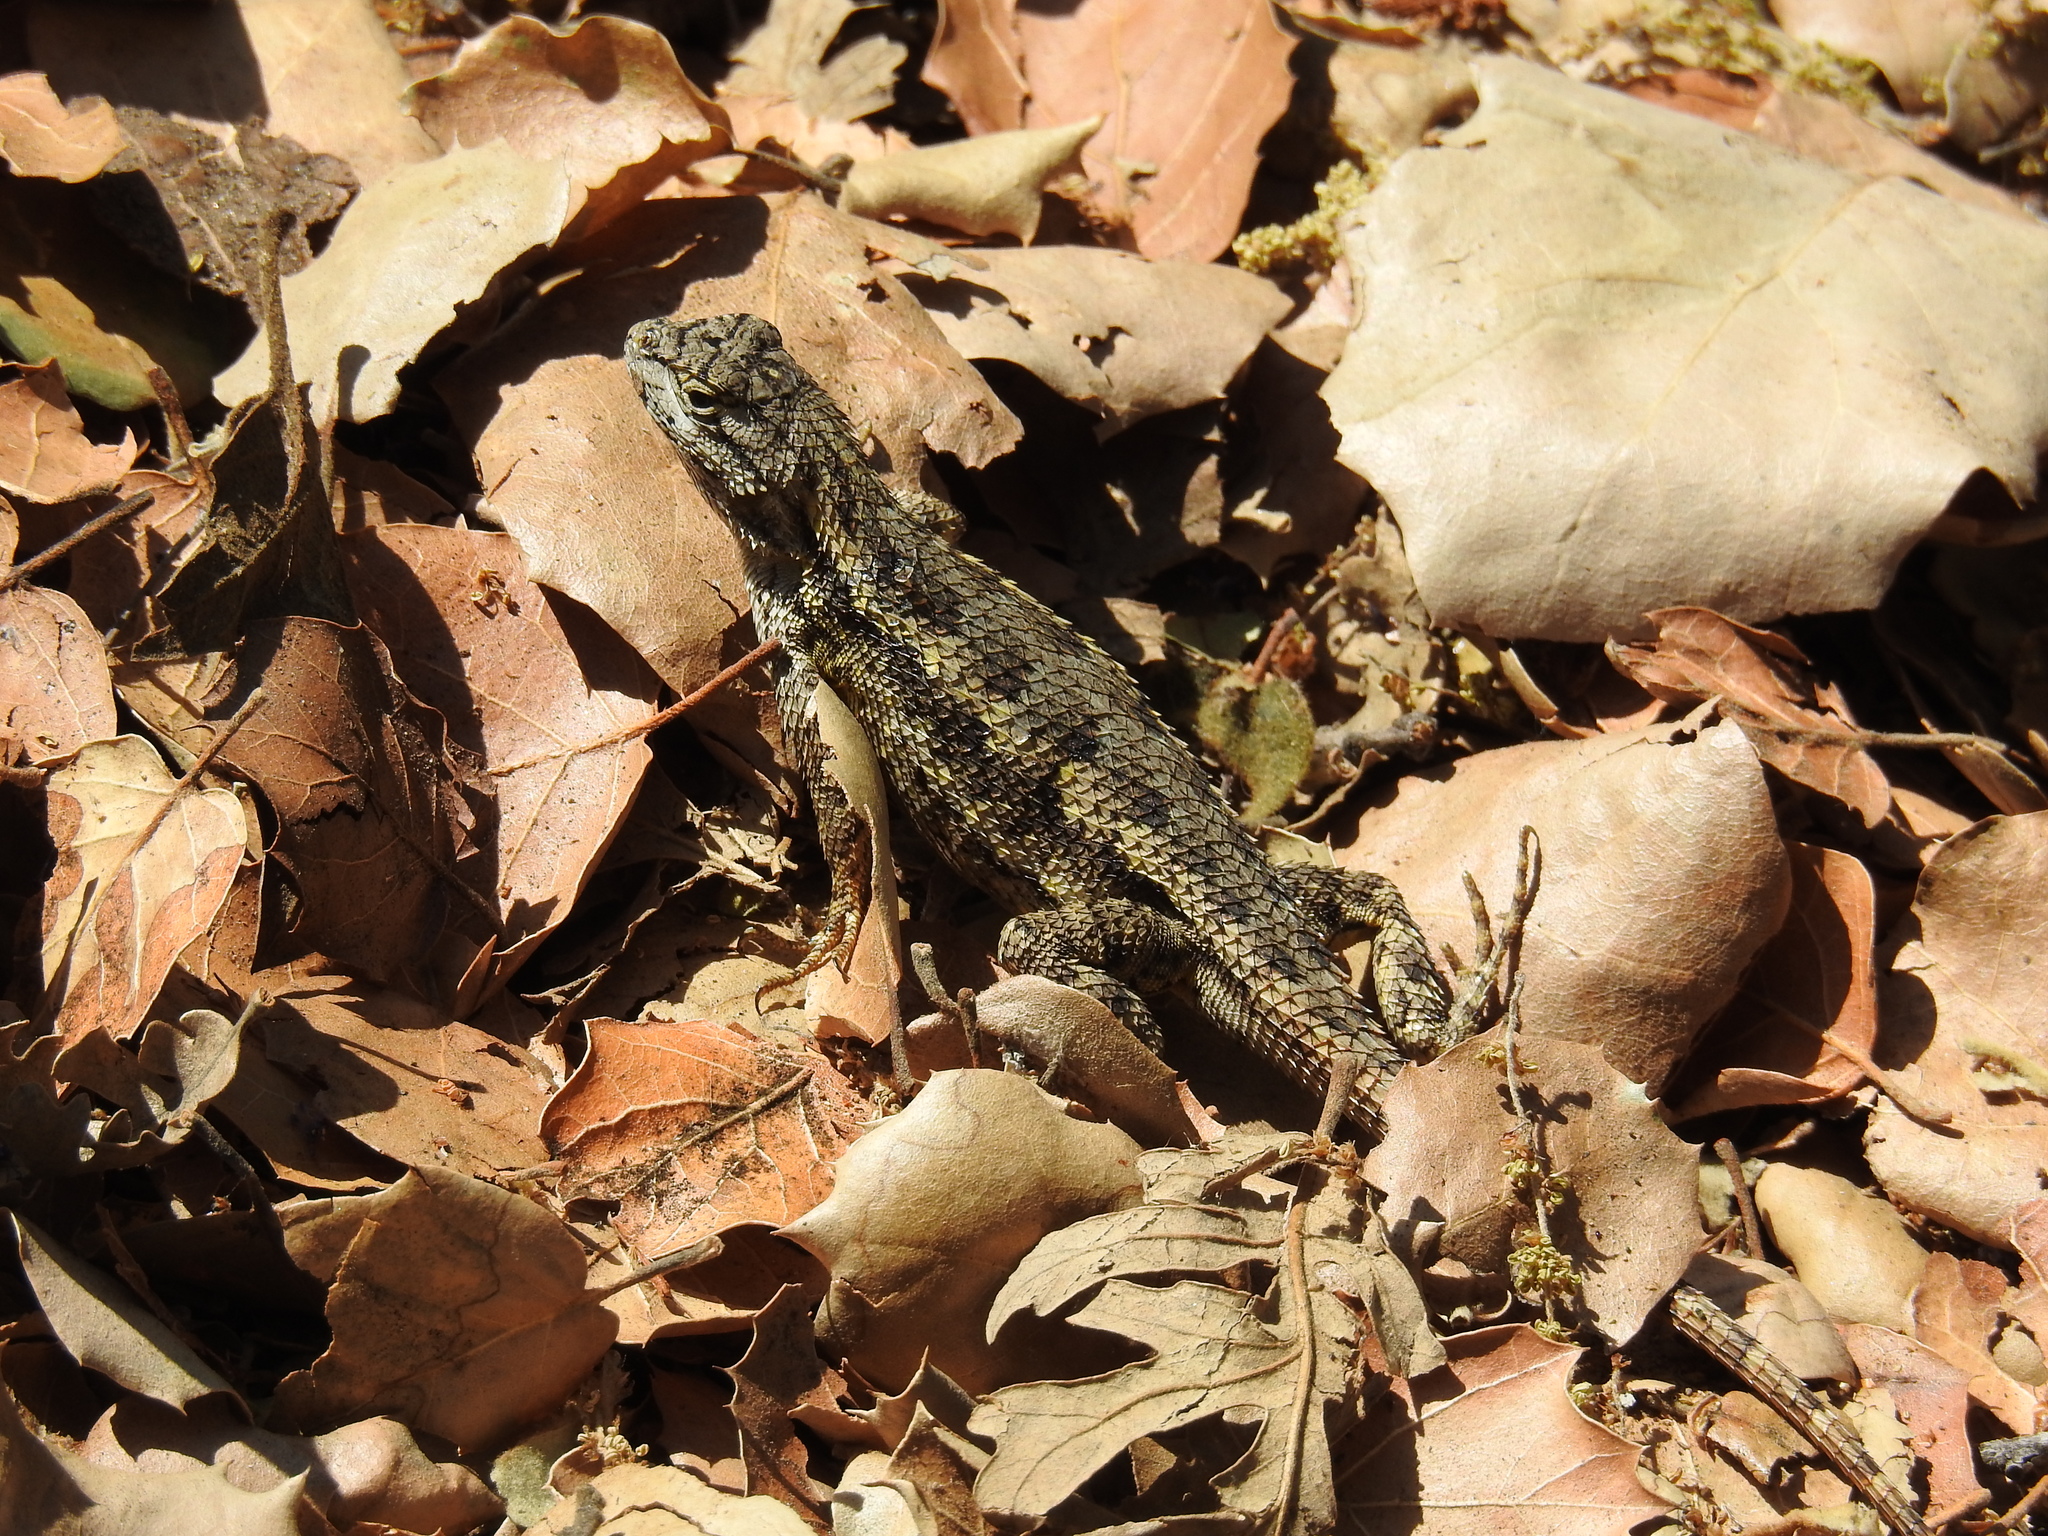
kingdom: Animalia
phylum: Chordata
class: Squamata
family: Phrynosomatidae
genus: Sceloporus
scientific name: Sceloporus occidentalis
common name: Western fence lizard
